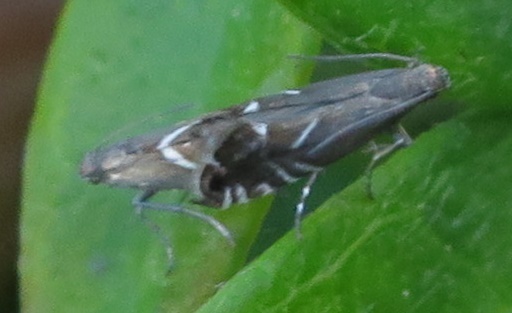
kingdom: Animalia
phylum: Arthropoda
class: Insecta
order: Lepidoptera
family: Glyphipterigidae
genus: Glyphipterix
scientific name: Glyphipterix simpliciella
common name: Cocksfoot moth
